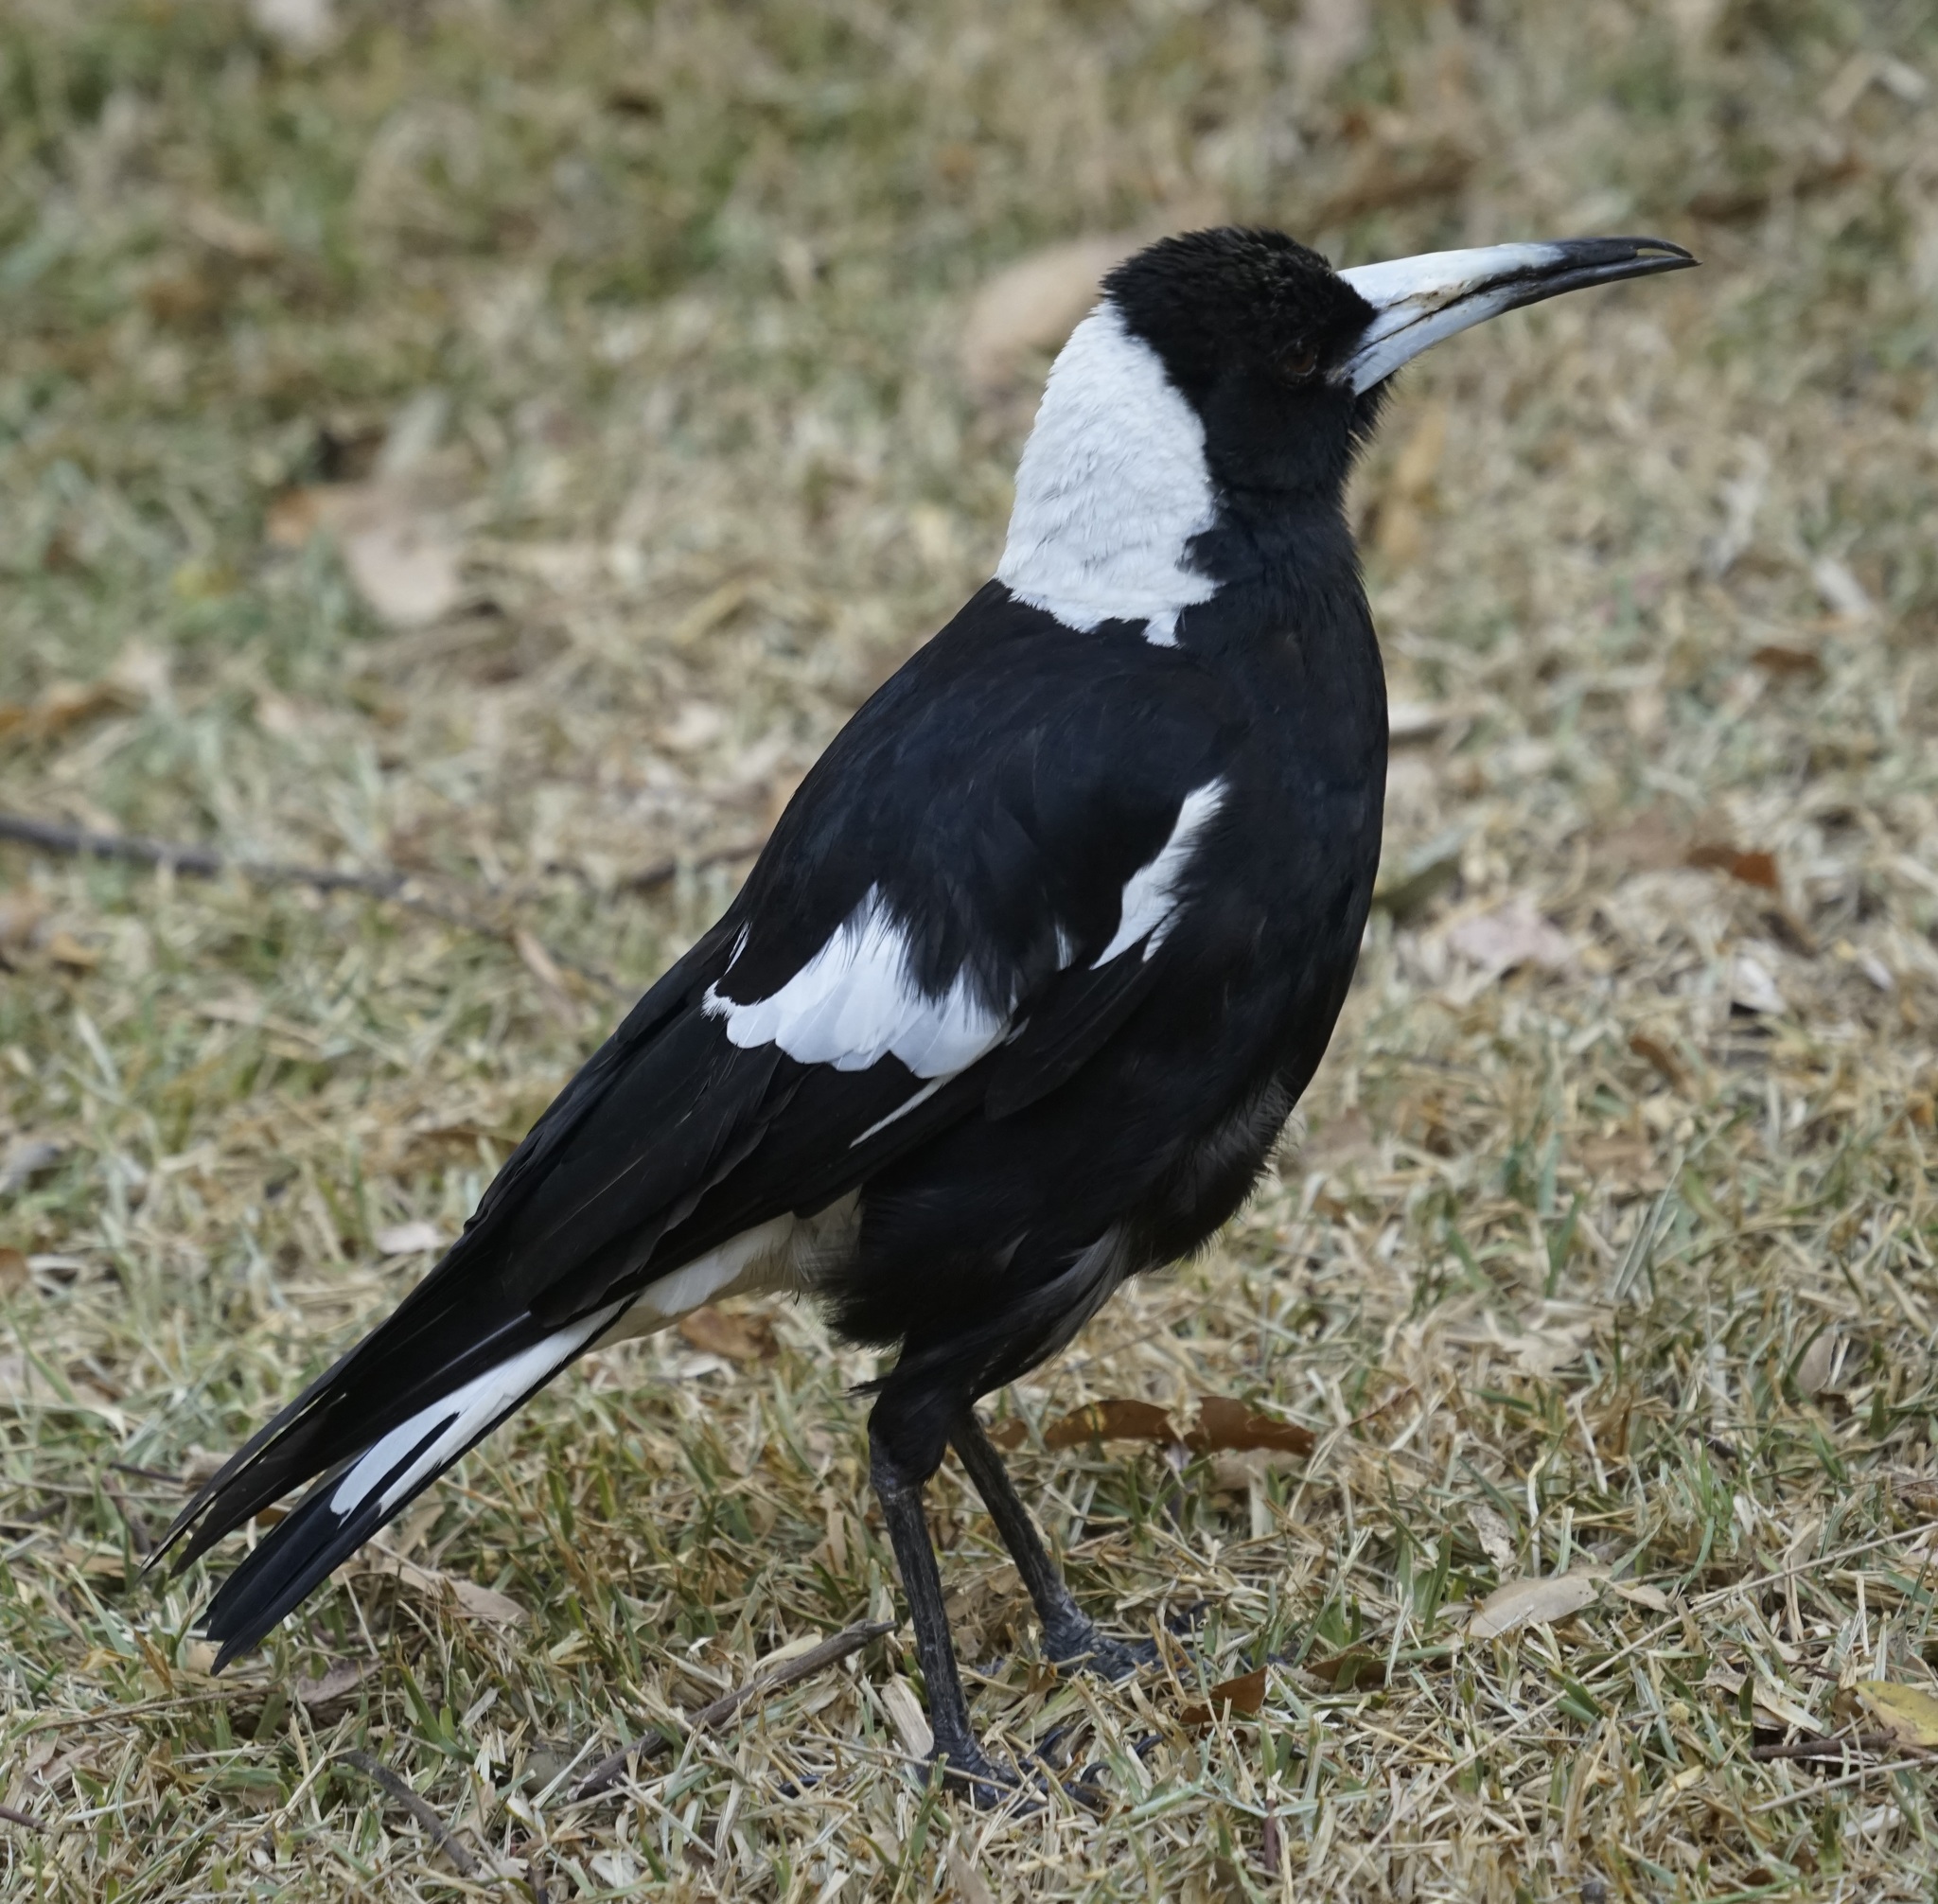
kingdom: Animalia
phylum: Chordata
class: Aves
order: Passeriformes
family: Cracticidae
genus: Gymnorhina
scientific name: Gymnorhina tibicen
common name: Australian magpie
